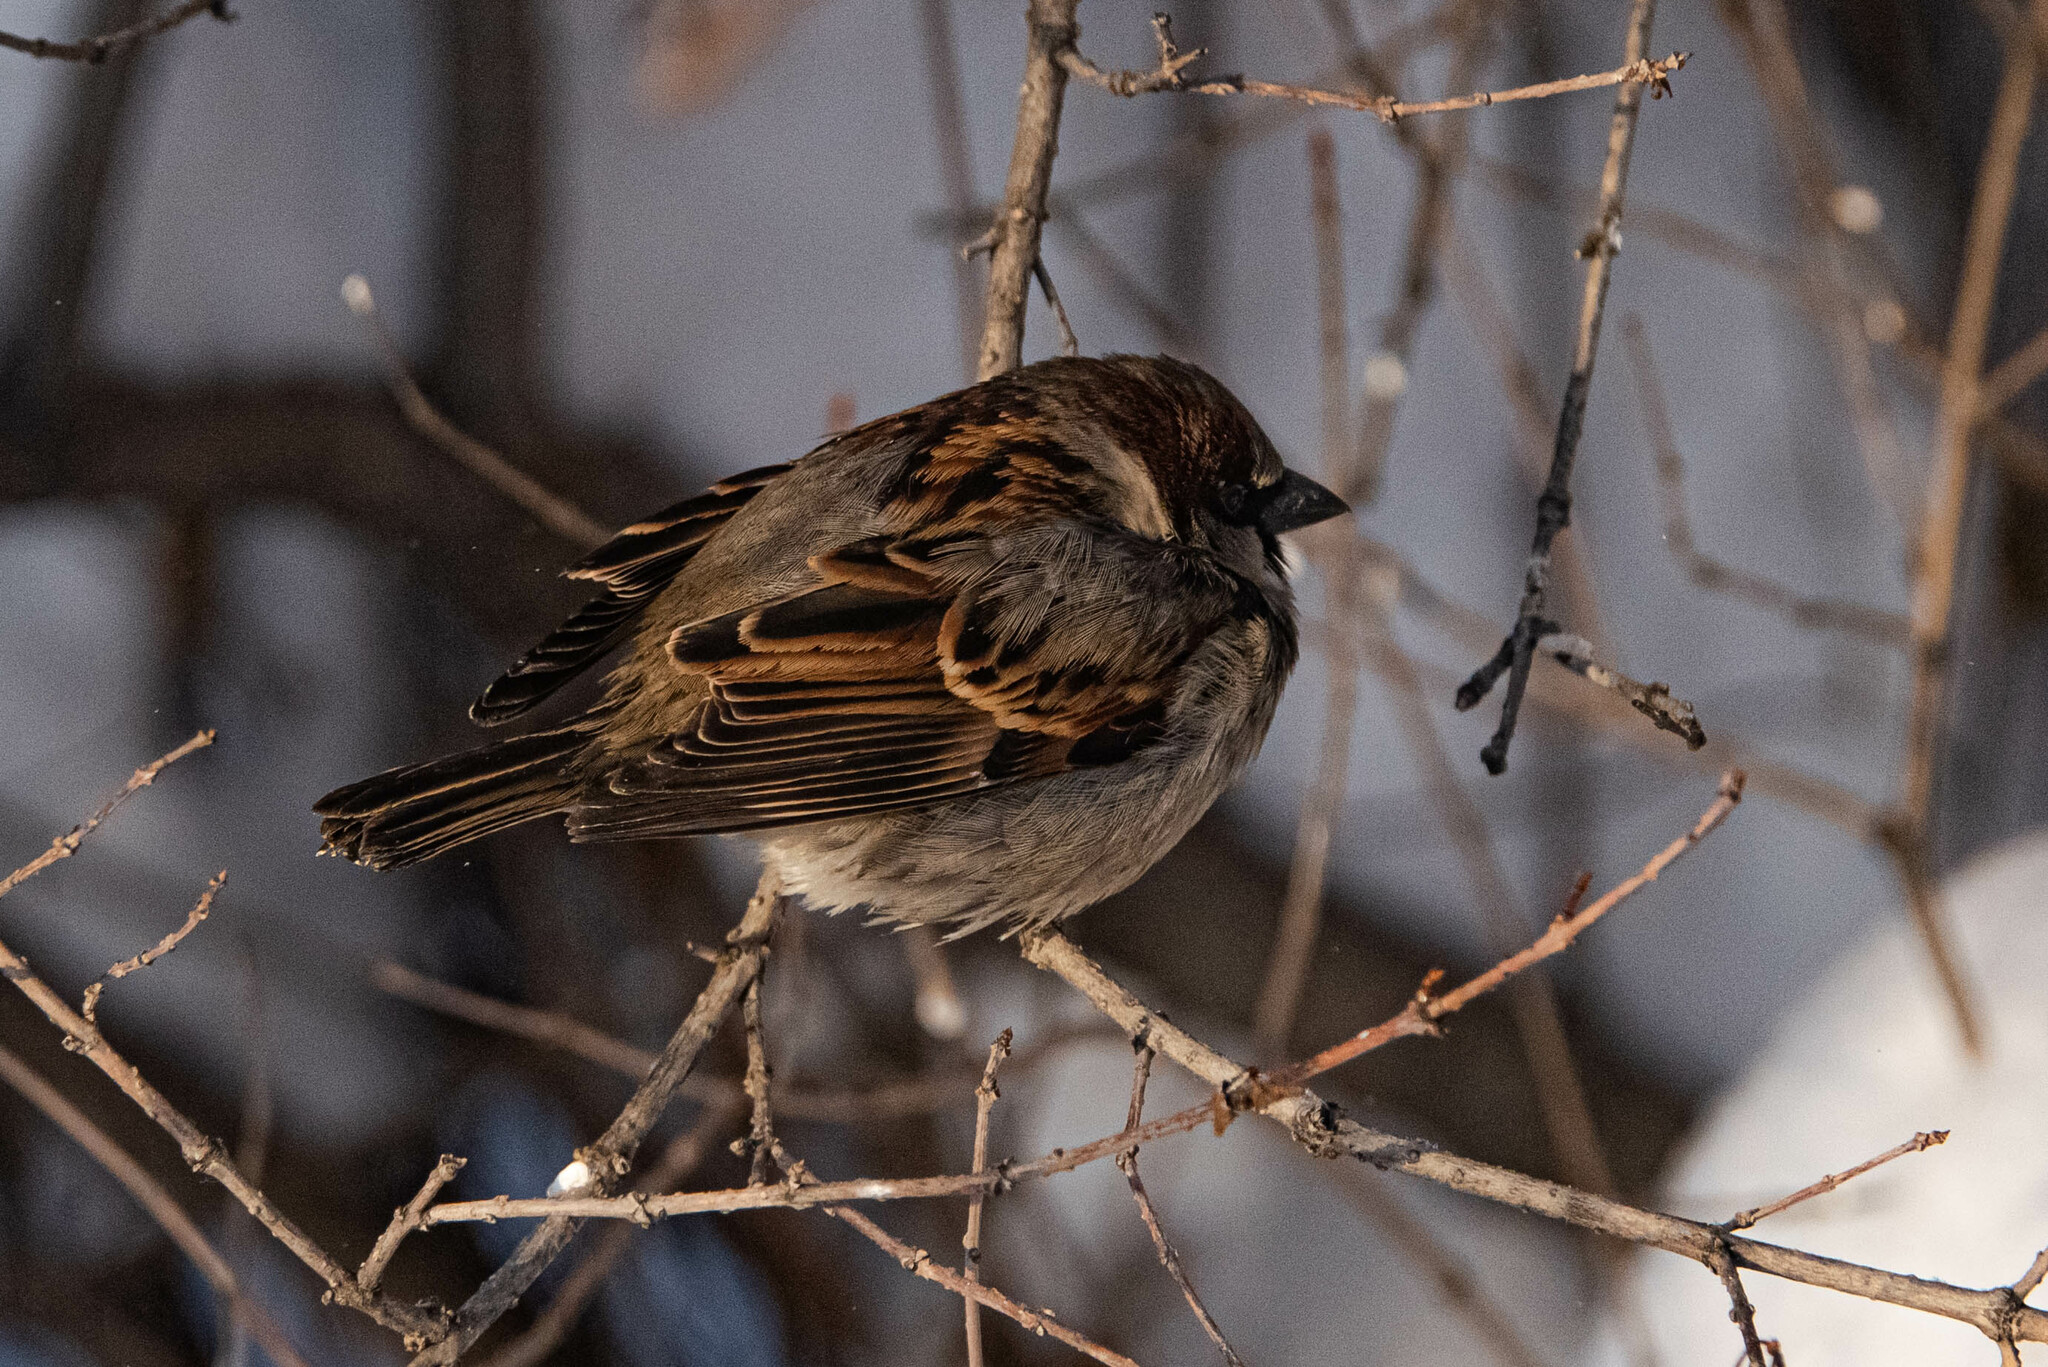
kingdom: Animalia
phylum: Chordata
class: Aves
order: Passeriformes
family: Passeridae
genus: Passer
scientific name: Passer domesticus
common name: House sparrow
